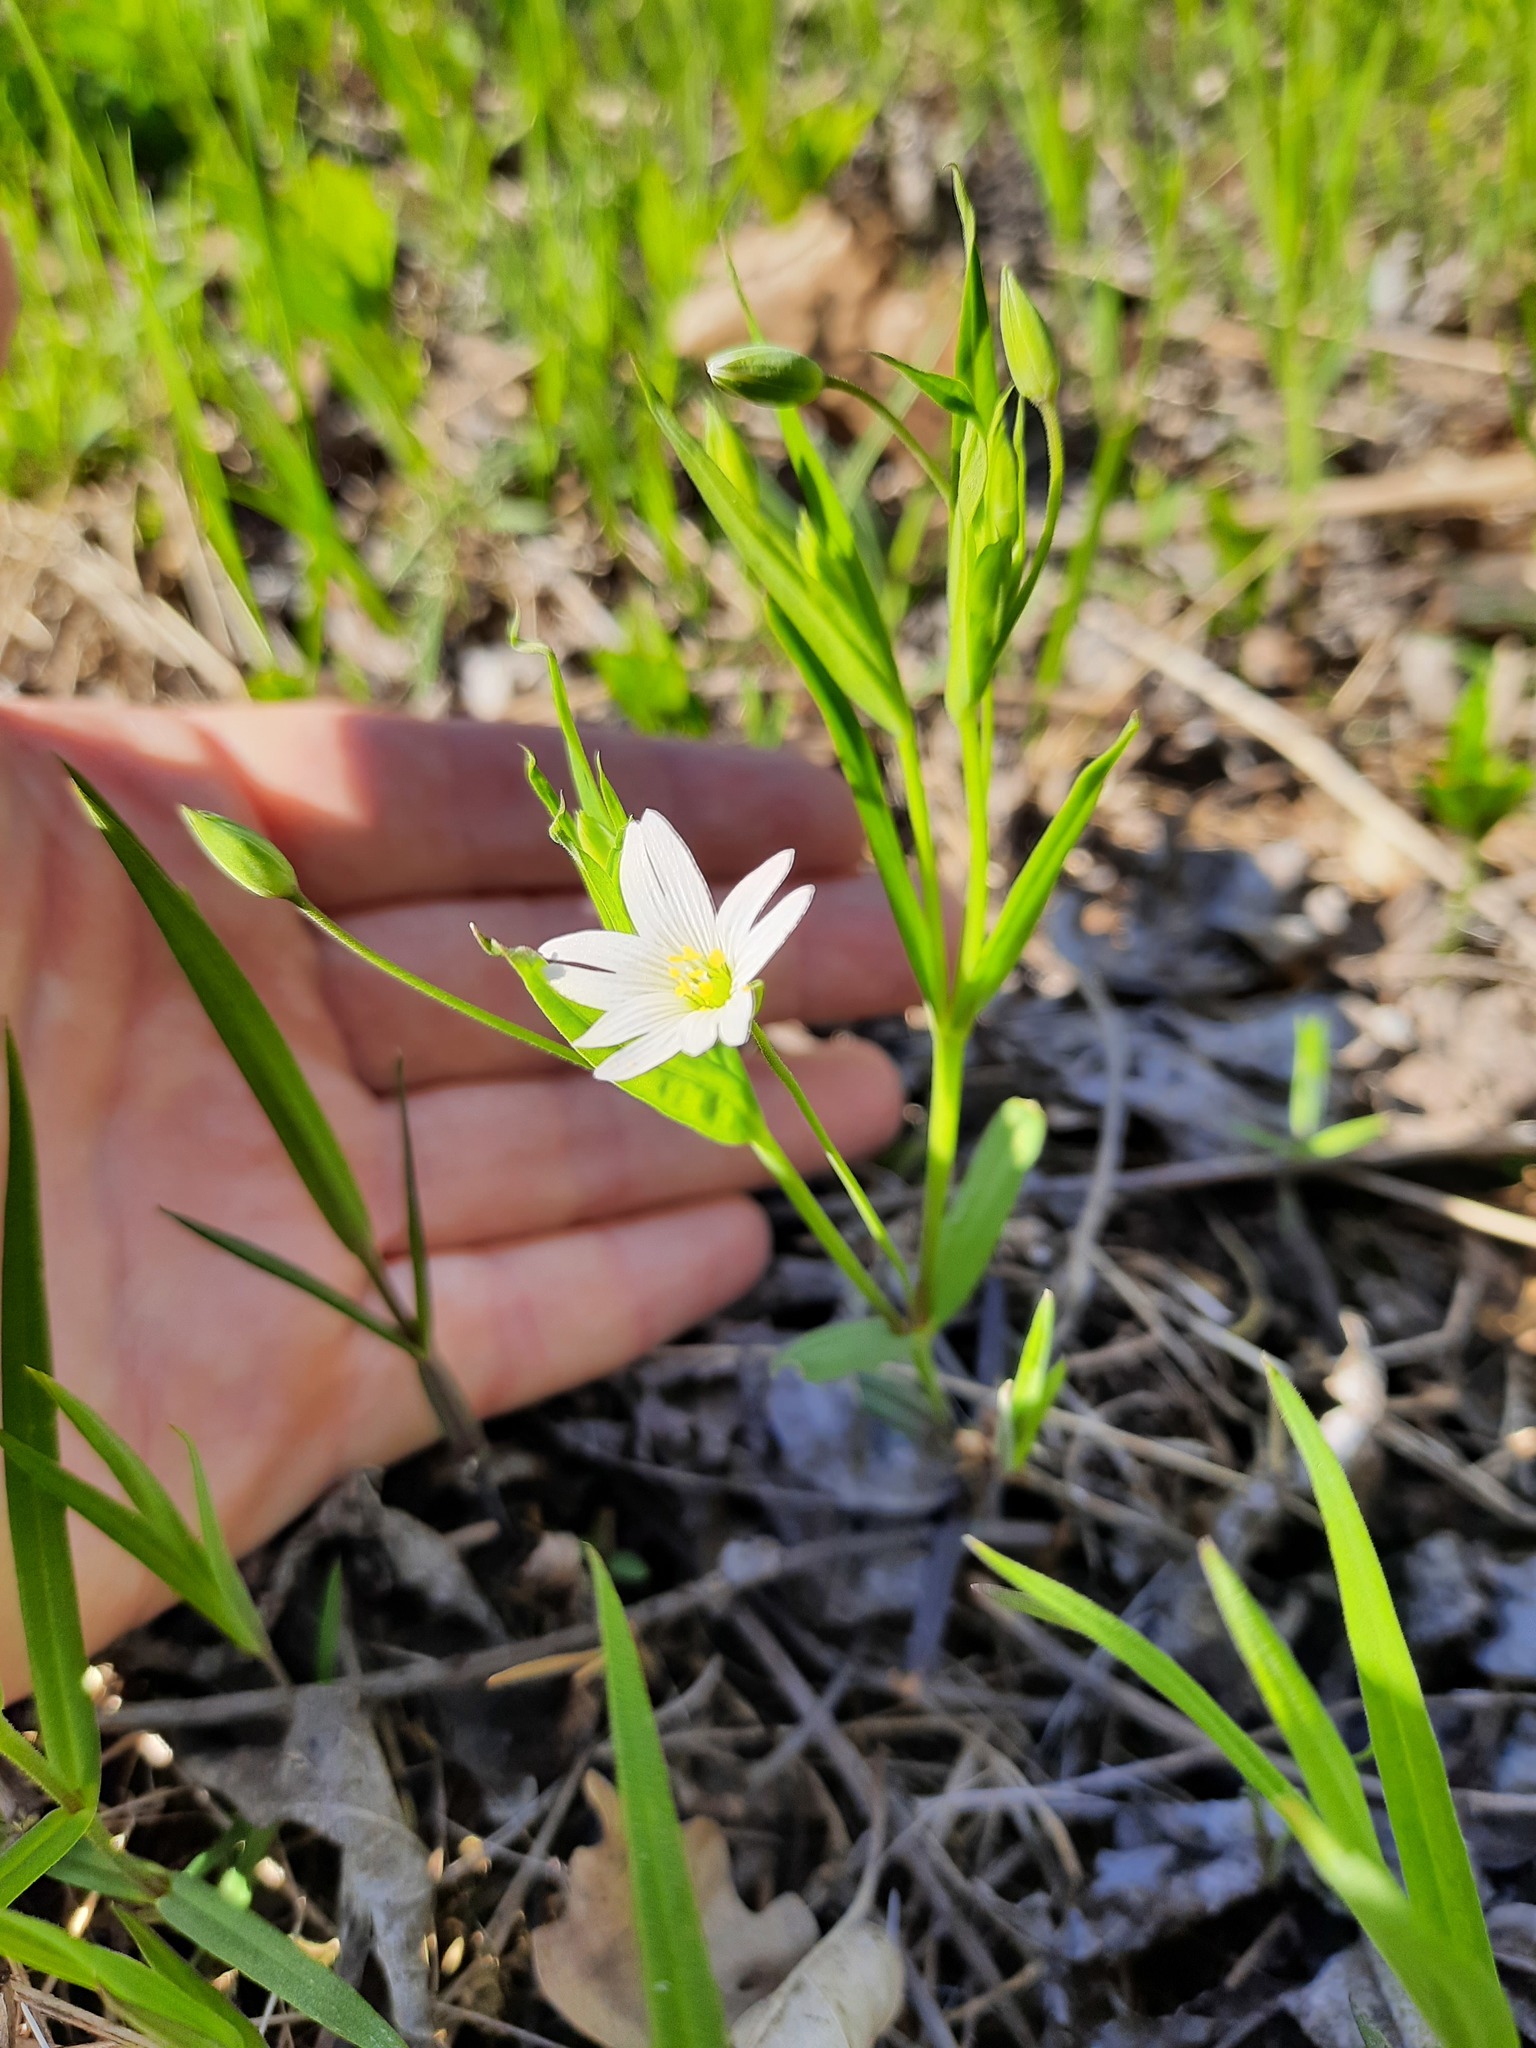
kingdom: Plantae
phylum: Tracheophyta
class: Magnoliopsida
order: Caryophyllales
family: Caryophyllaceae
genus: Rabelera
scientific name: Rabelera holostea
